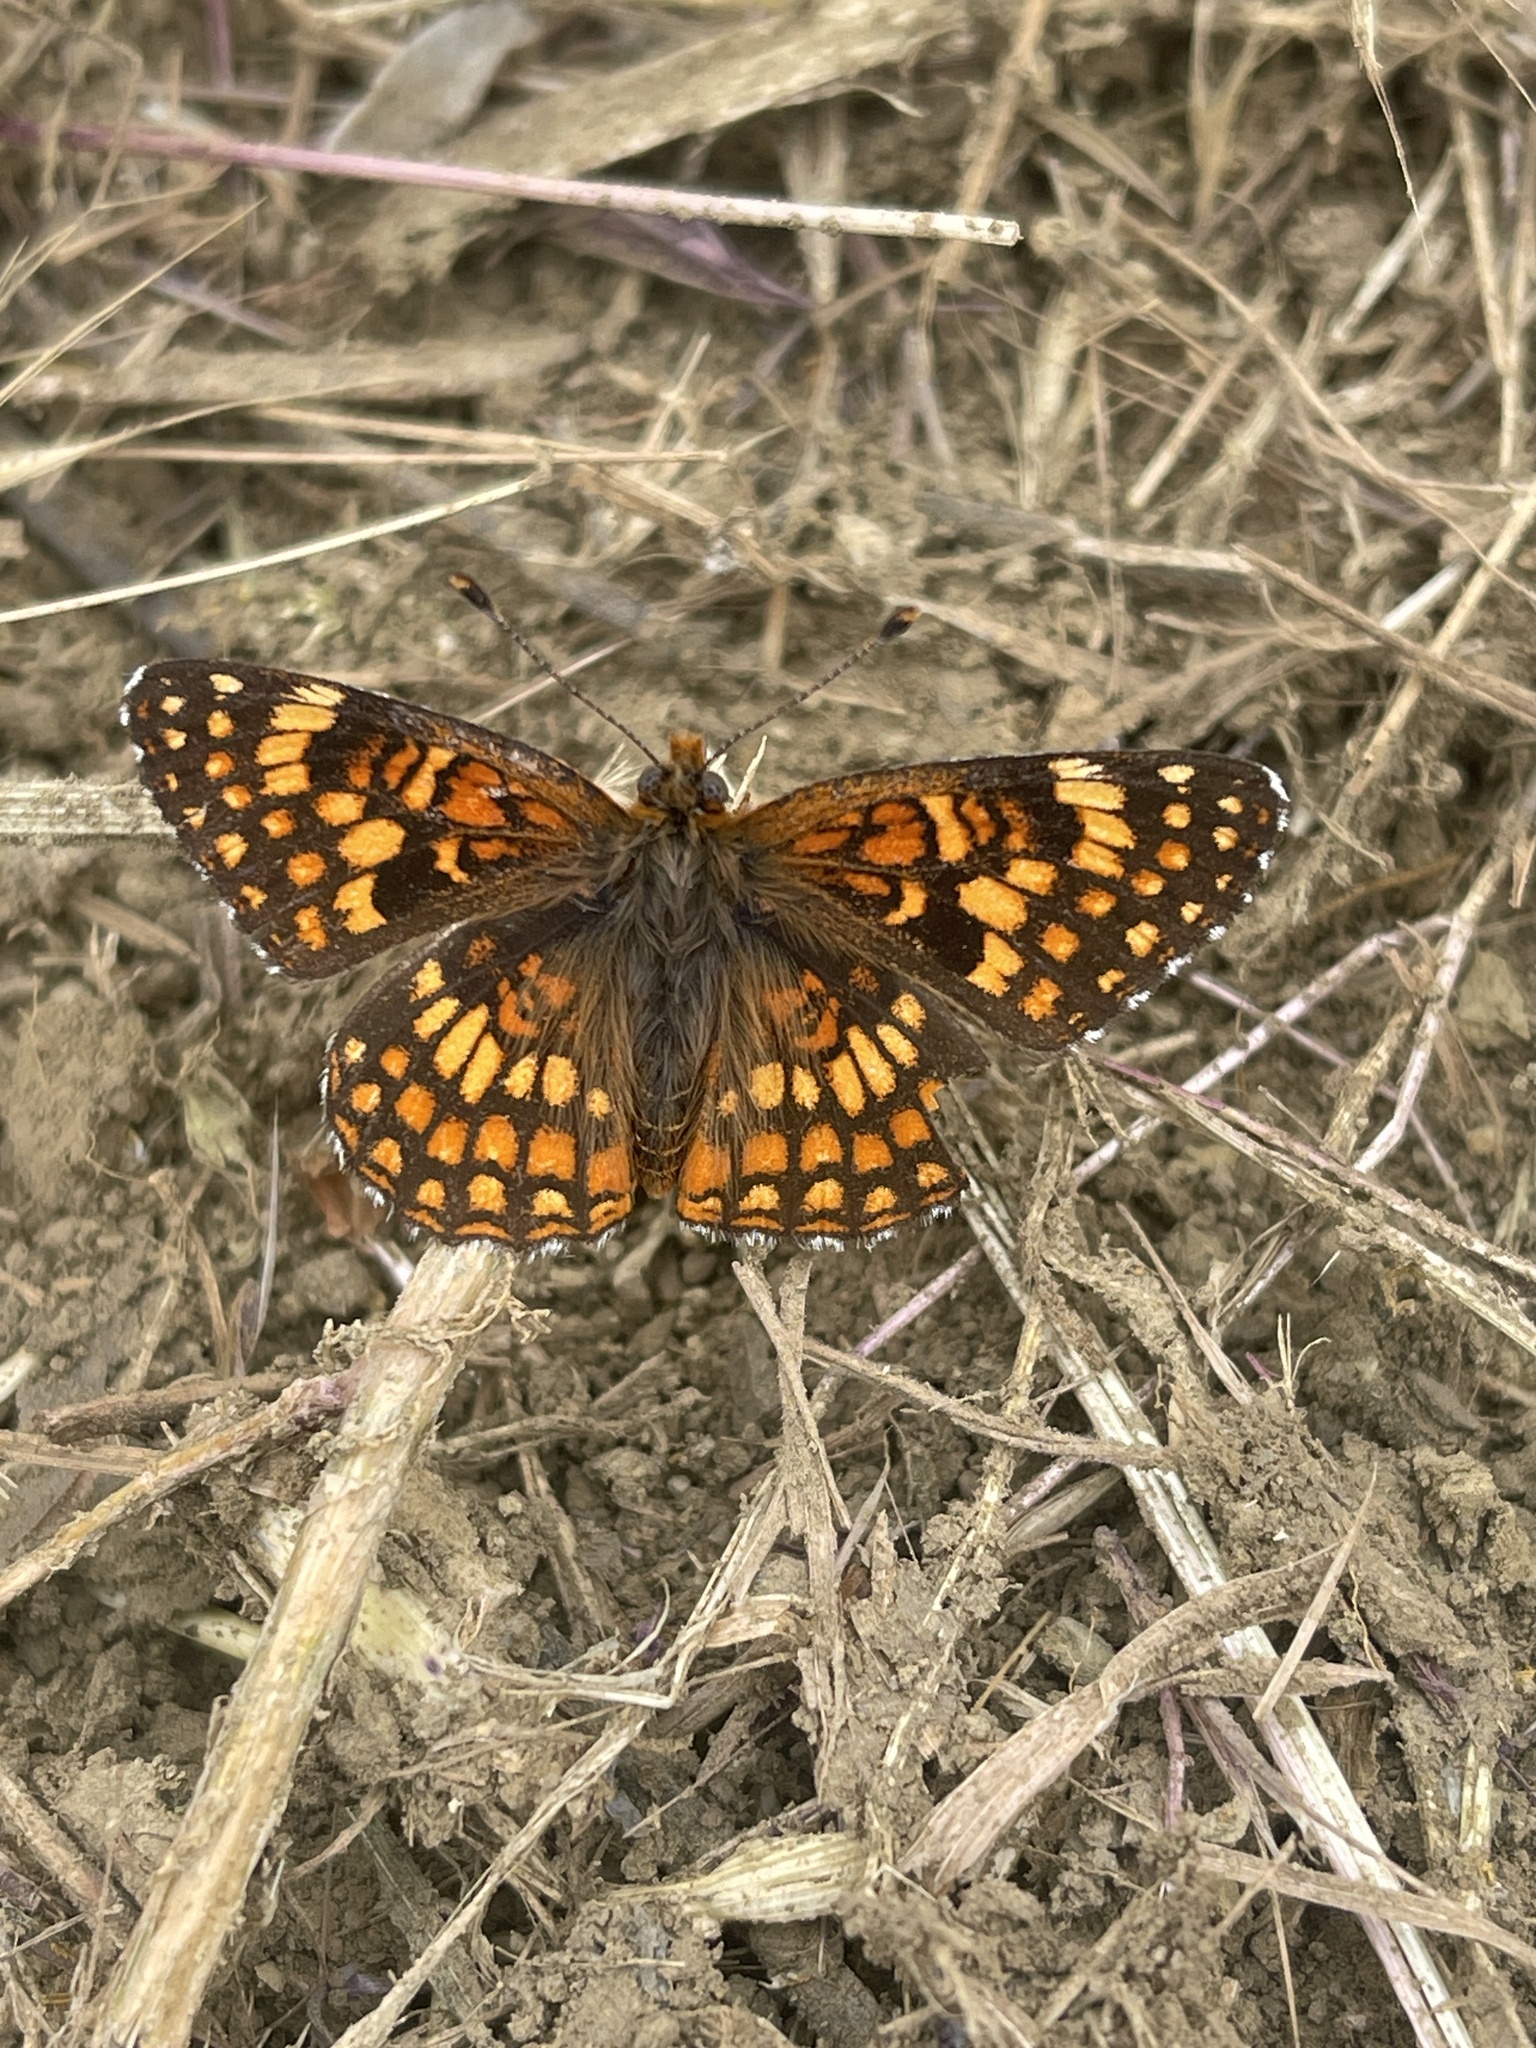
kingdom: Animalia
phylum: Arthropoda
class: Insecta
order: Lepidoptera
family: Nymphalidae
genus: Chlosyne
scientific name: Chlosyne gabbii
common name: Gabb's checkerspot
